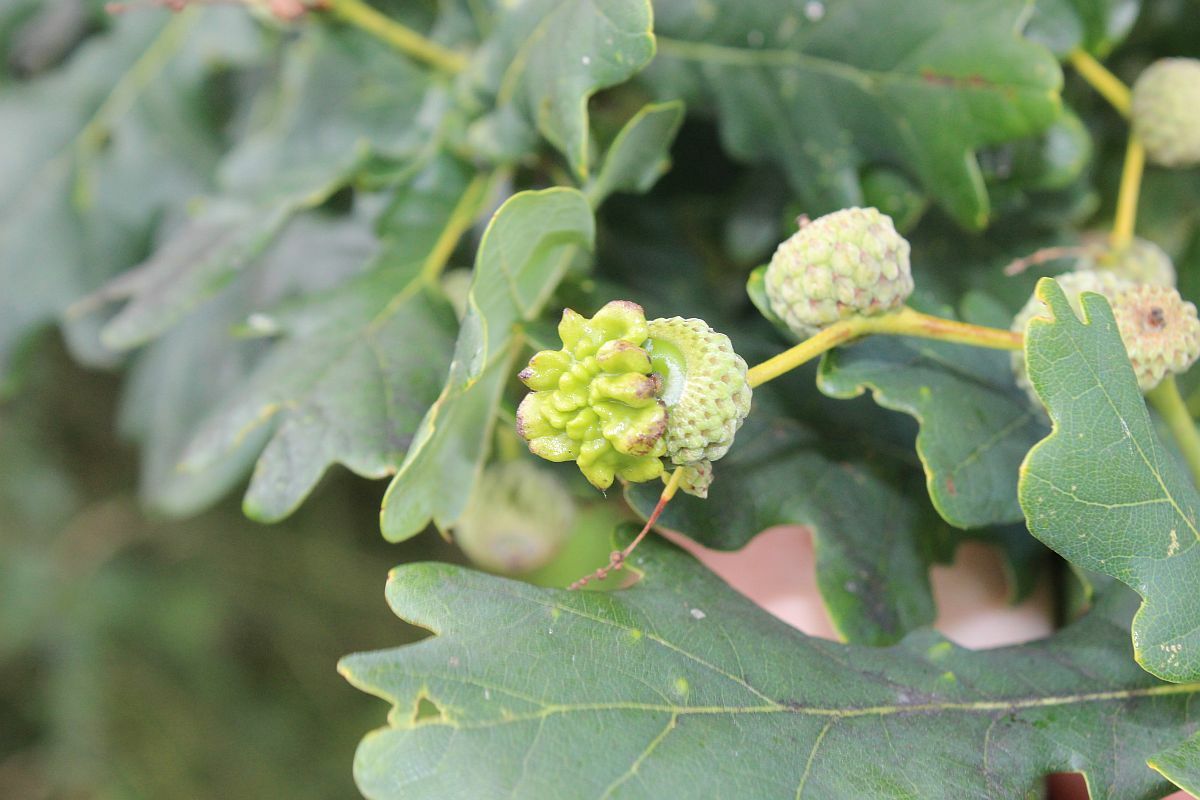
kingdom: Animalia
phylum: Arthropoda
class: Insecta
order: Hymenoptera
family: Cynipidae
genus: Andricus
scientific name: Andricus quercuscalicis
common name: Knopper gall
